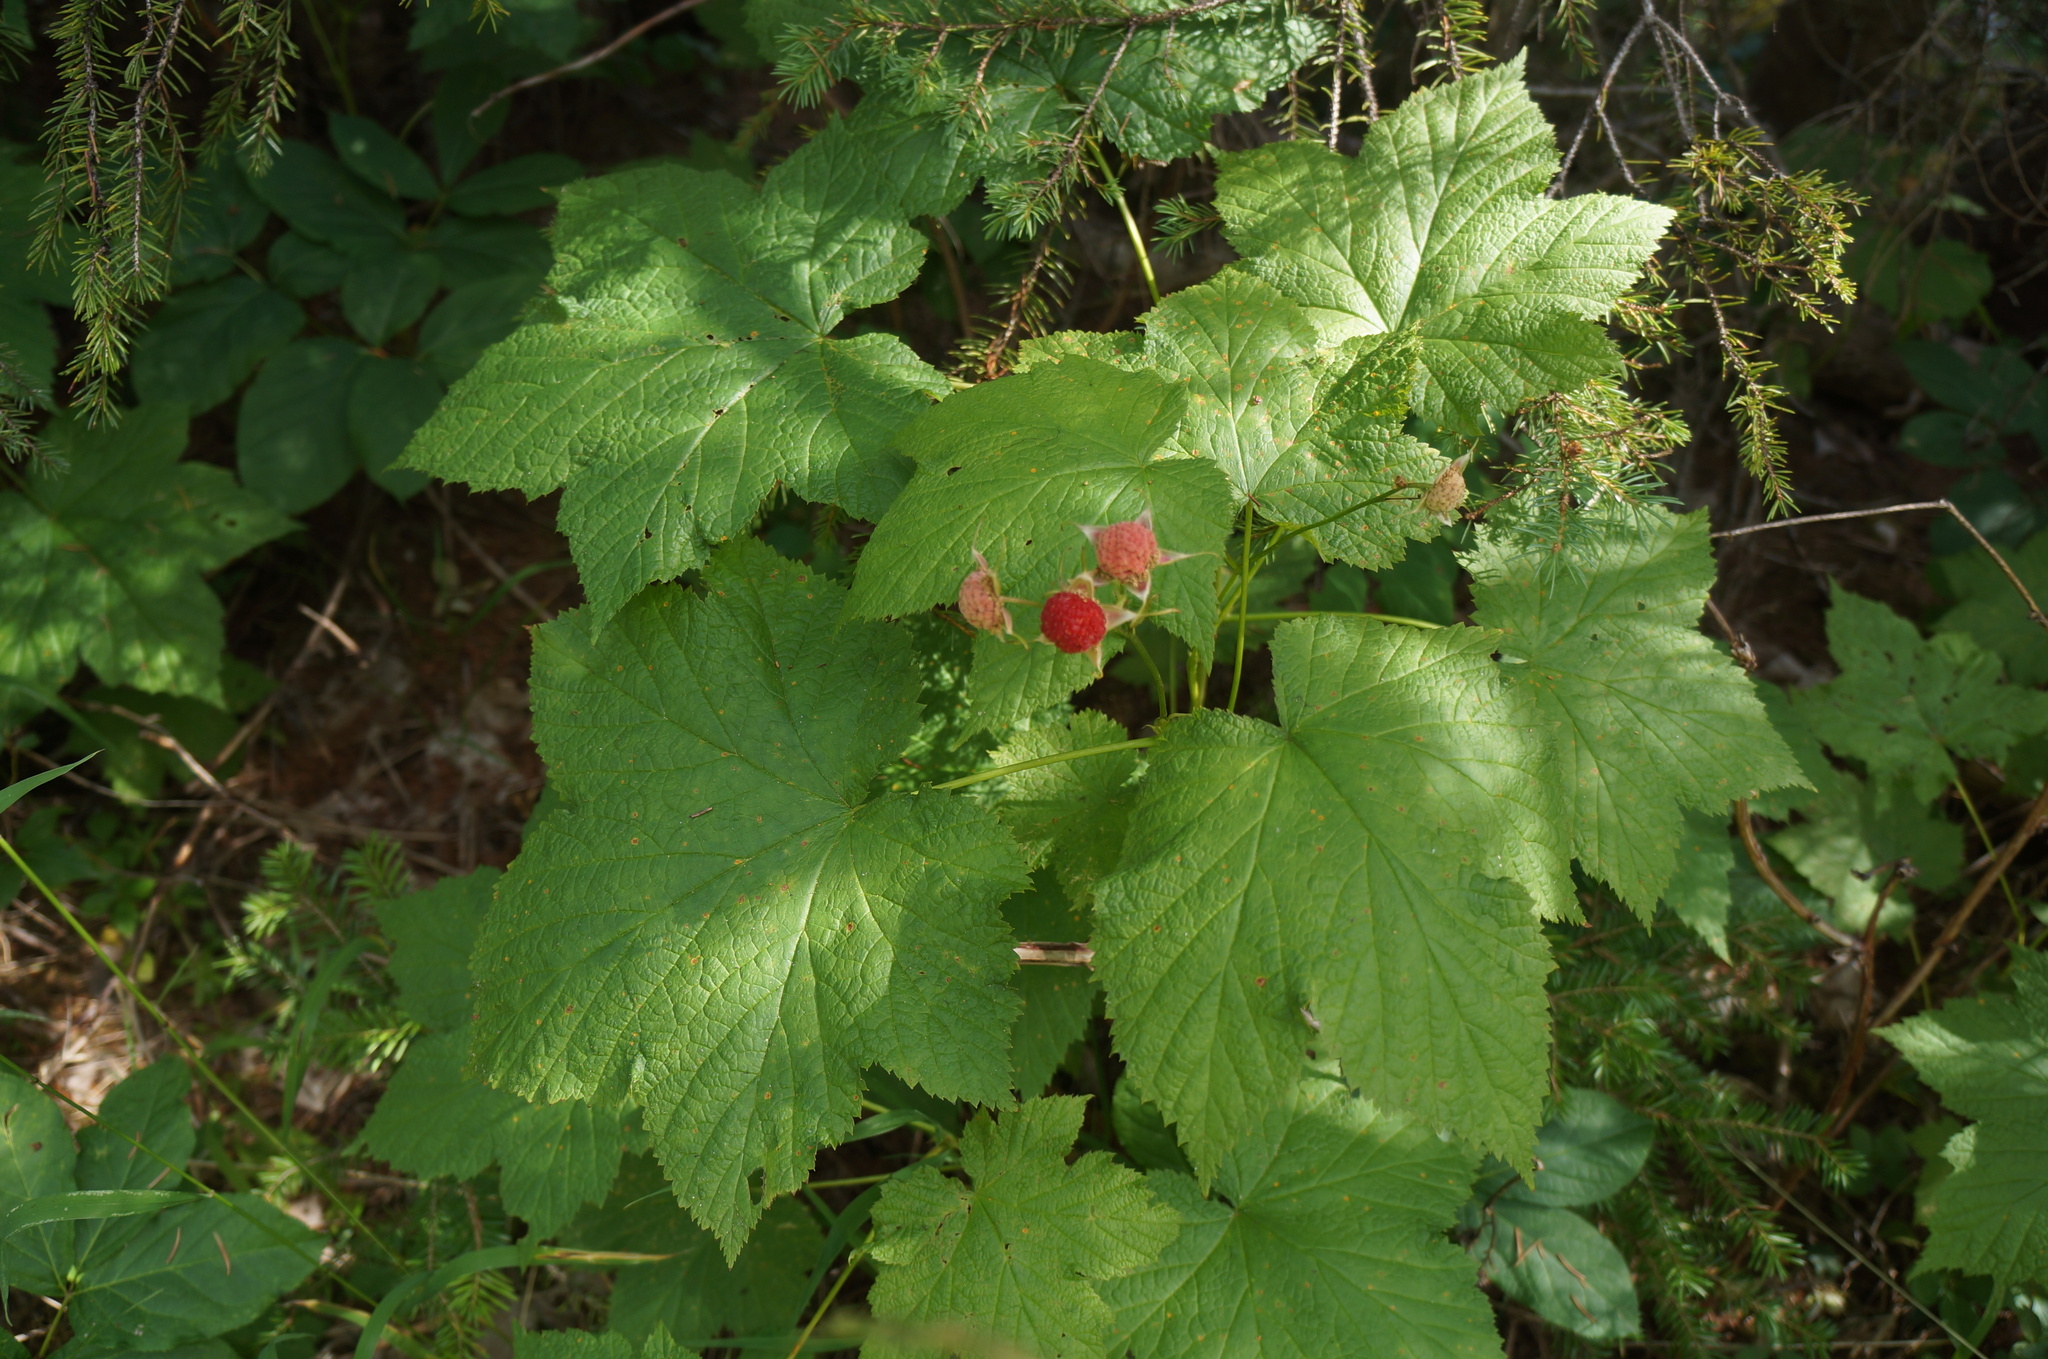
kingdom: Plantae
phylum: Tracheophyta
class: Magnoliopsida
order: Rosales
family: Rosaceae
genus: Rubus
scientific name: Rubus parviflorus
